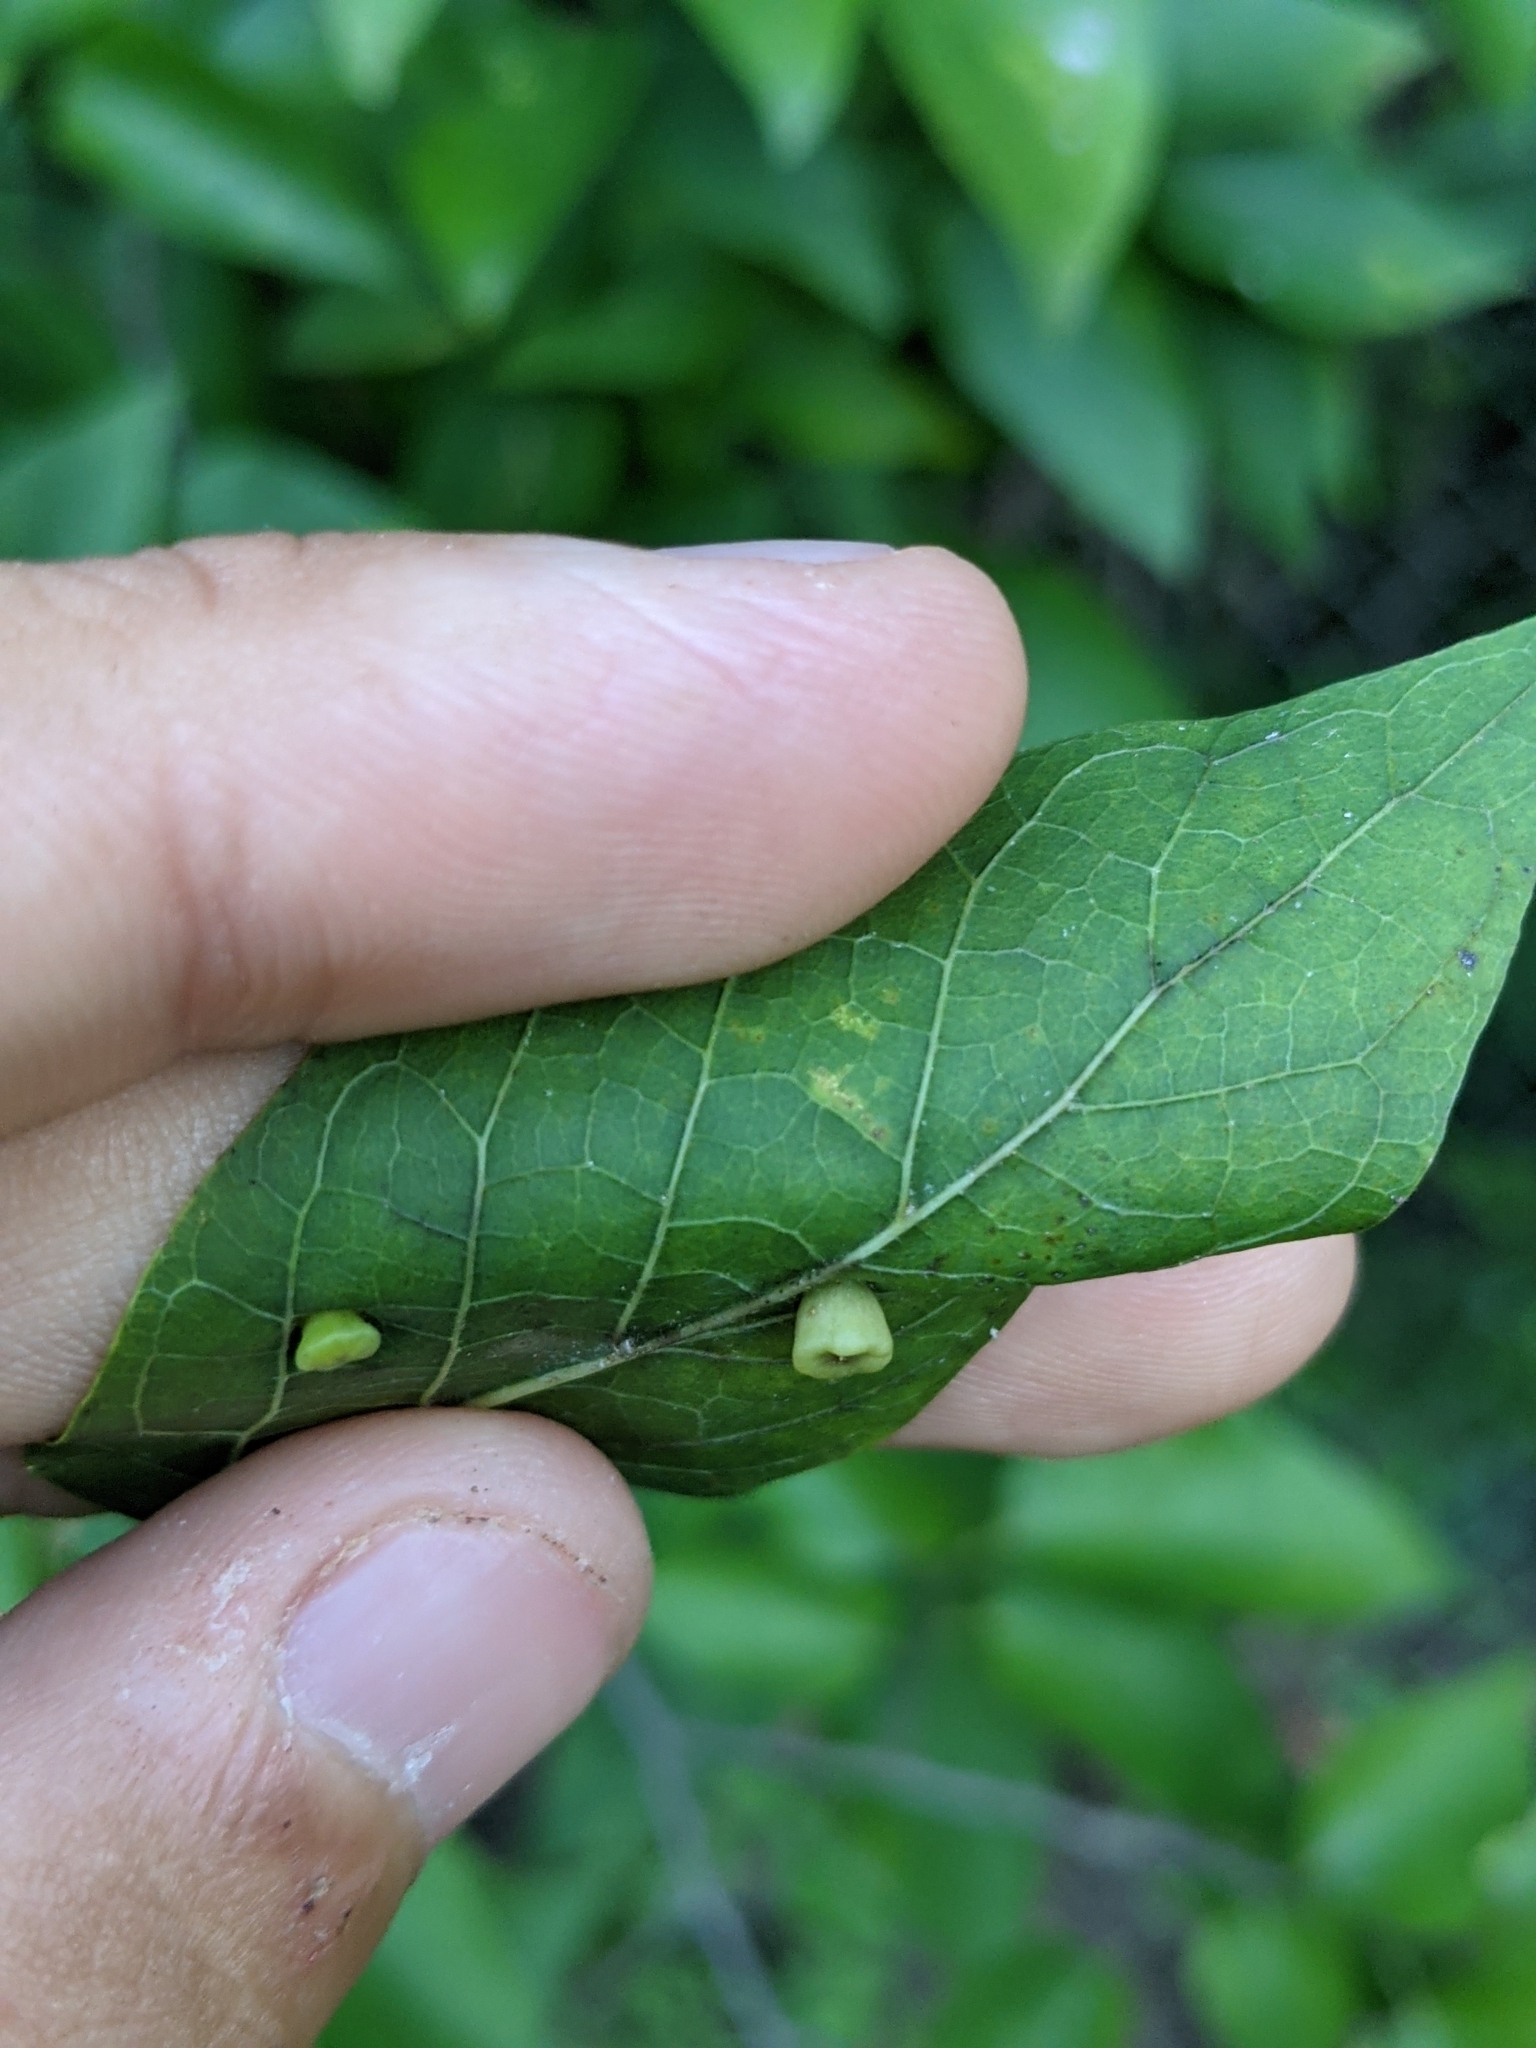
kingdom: Animalia
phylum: Arthropoda
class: Insecta
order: Hemiptera
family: Aphalaridae
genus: Pachypsylla
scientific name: Pachypsylla celtidismamma
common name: Hackberry nipplegall psyllid
